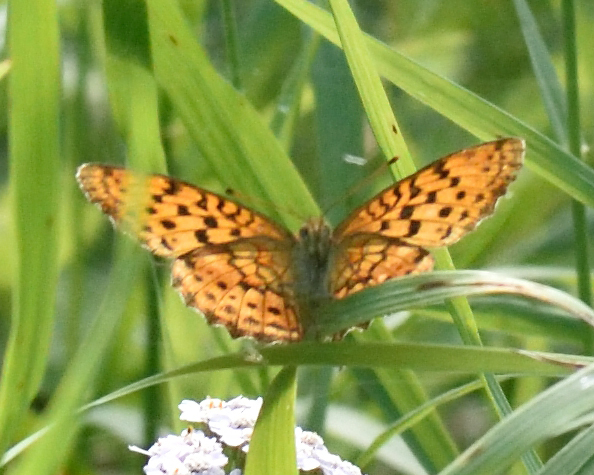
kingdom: Animalia
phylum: Arthropoda
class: Insecta
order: Lepidoptera
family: Nymphalidae
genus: Brenthis
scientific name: Brenthis daphne
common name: Marbled fritillary
